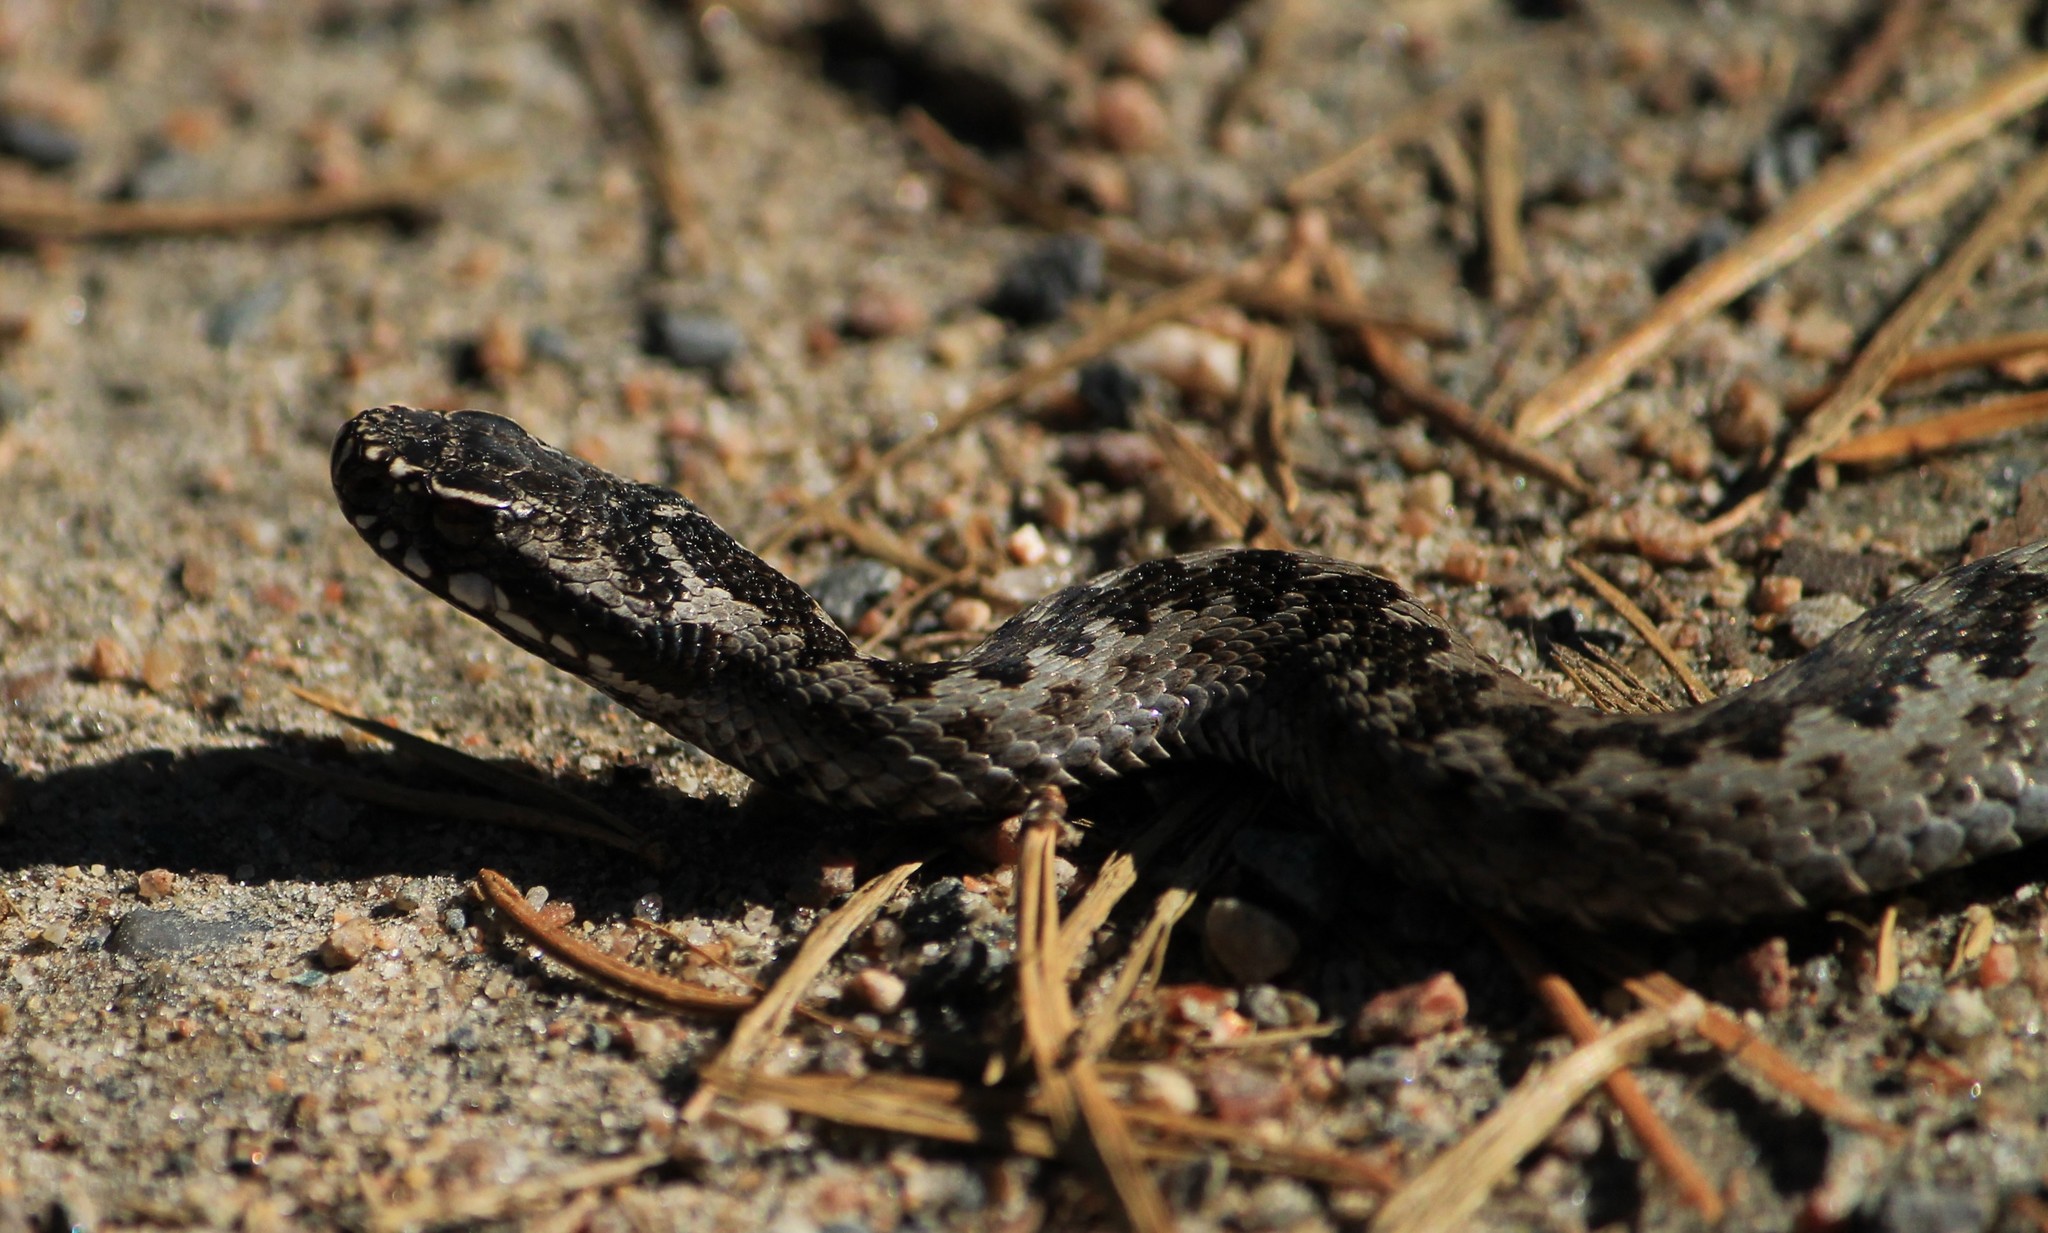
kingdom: Animalia
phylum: Chordata
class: Squamata
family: Viperidae
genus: Vipera
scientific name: Vipera berus
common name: Adder
